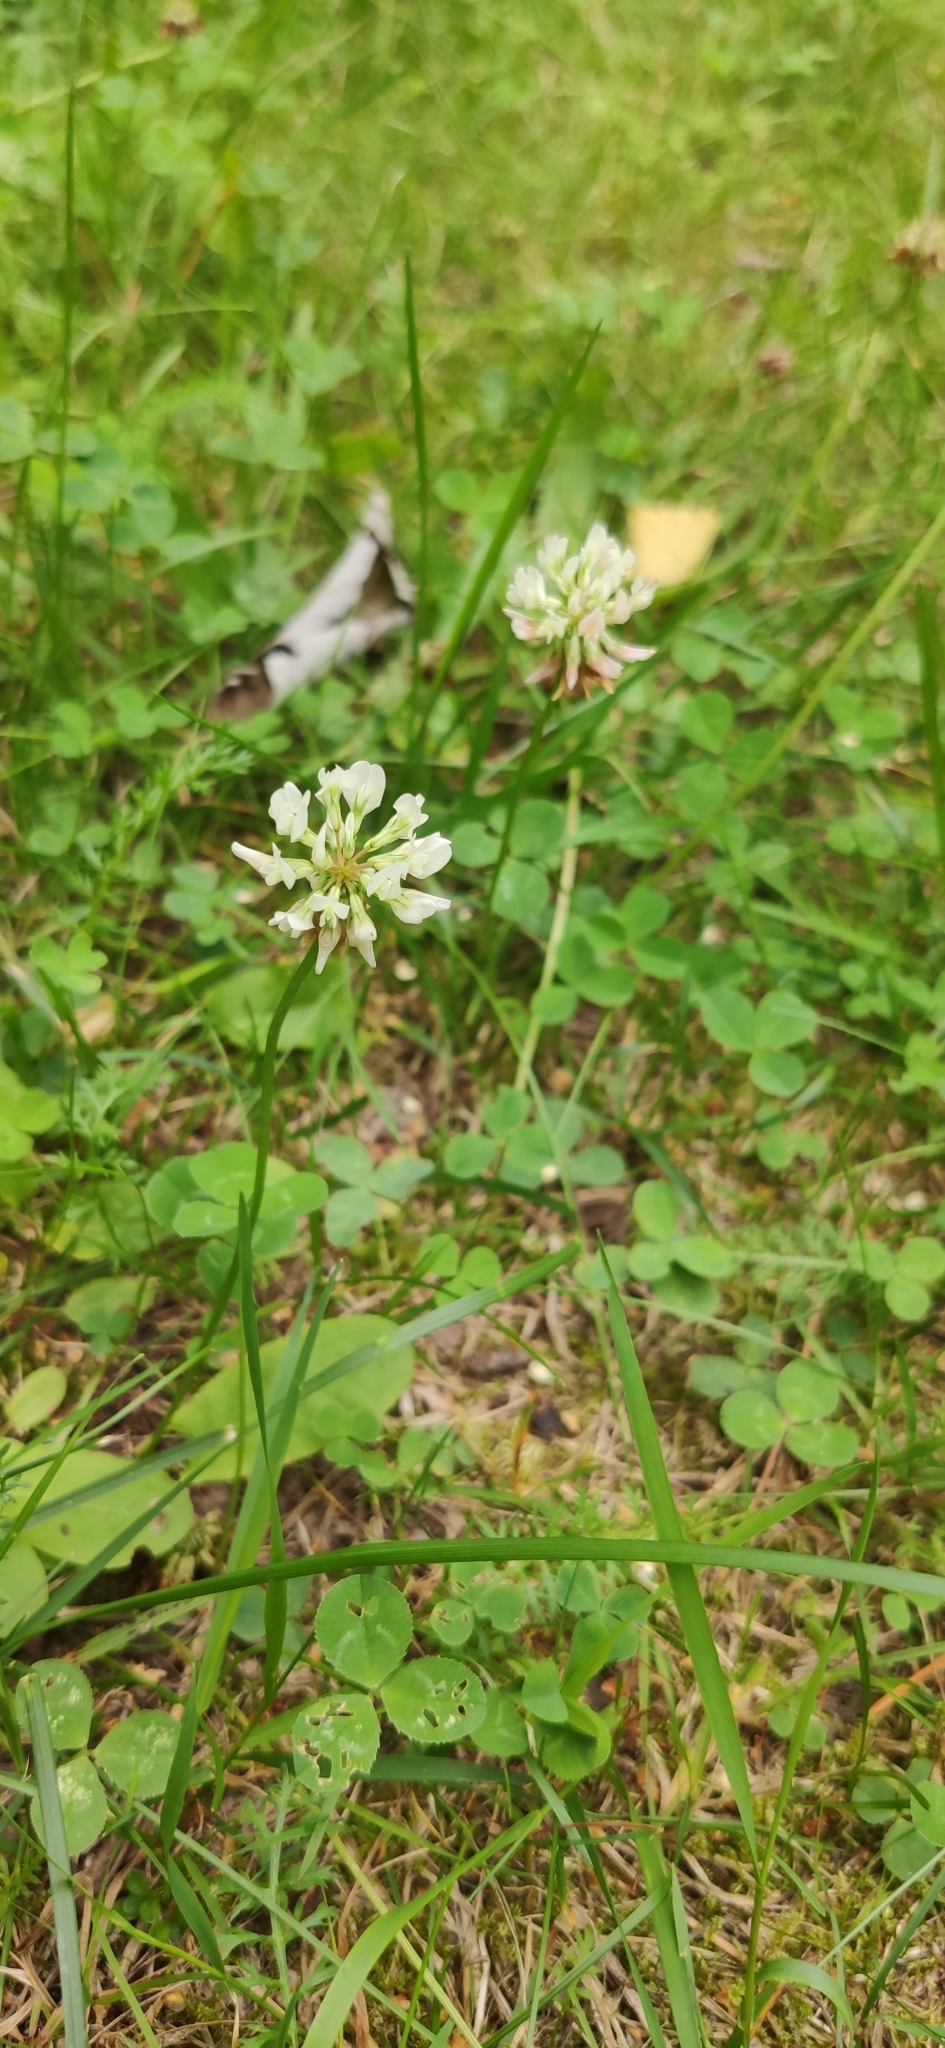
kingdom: Plantae
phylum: Tracheophyta
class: Magnoliopsida
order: Fabales
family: Fabaceae
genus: Trifolium
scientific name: Trifolium repens
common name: White clover
